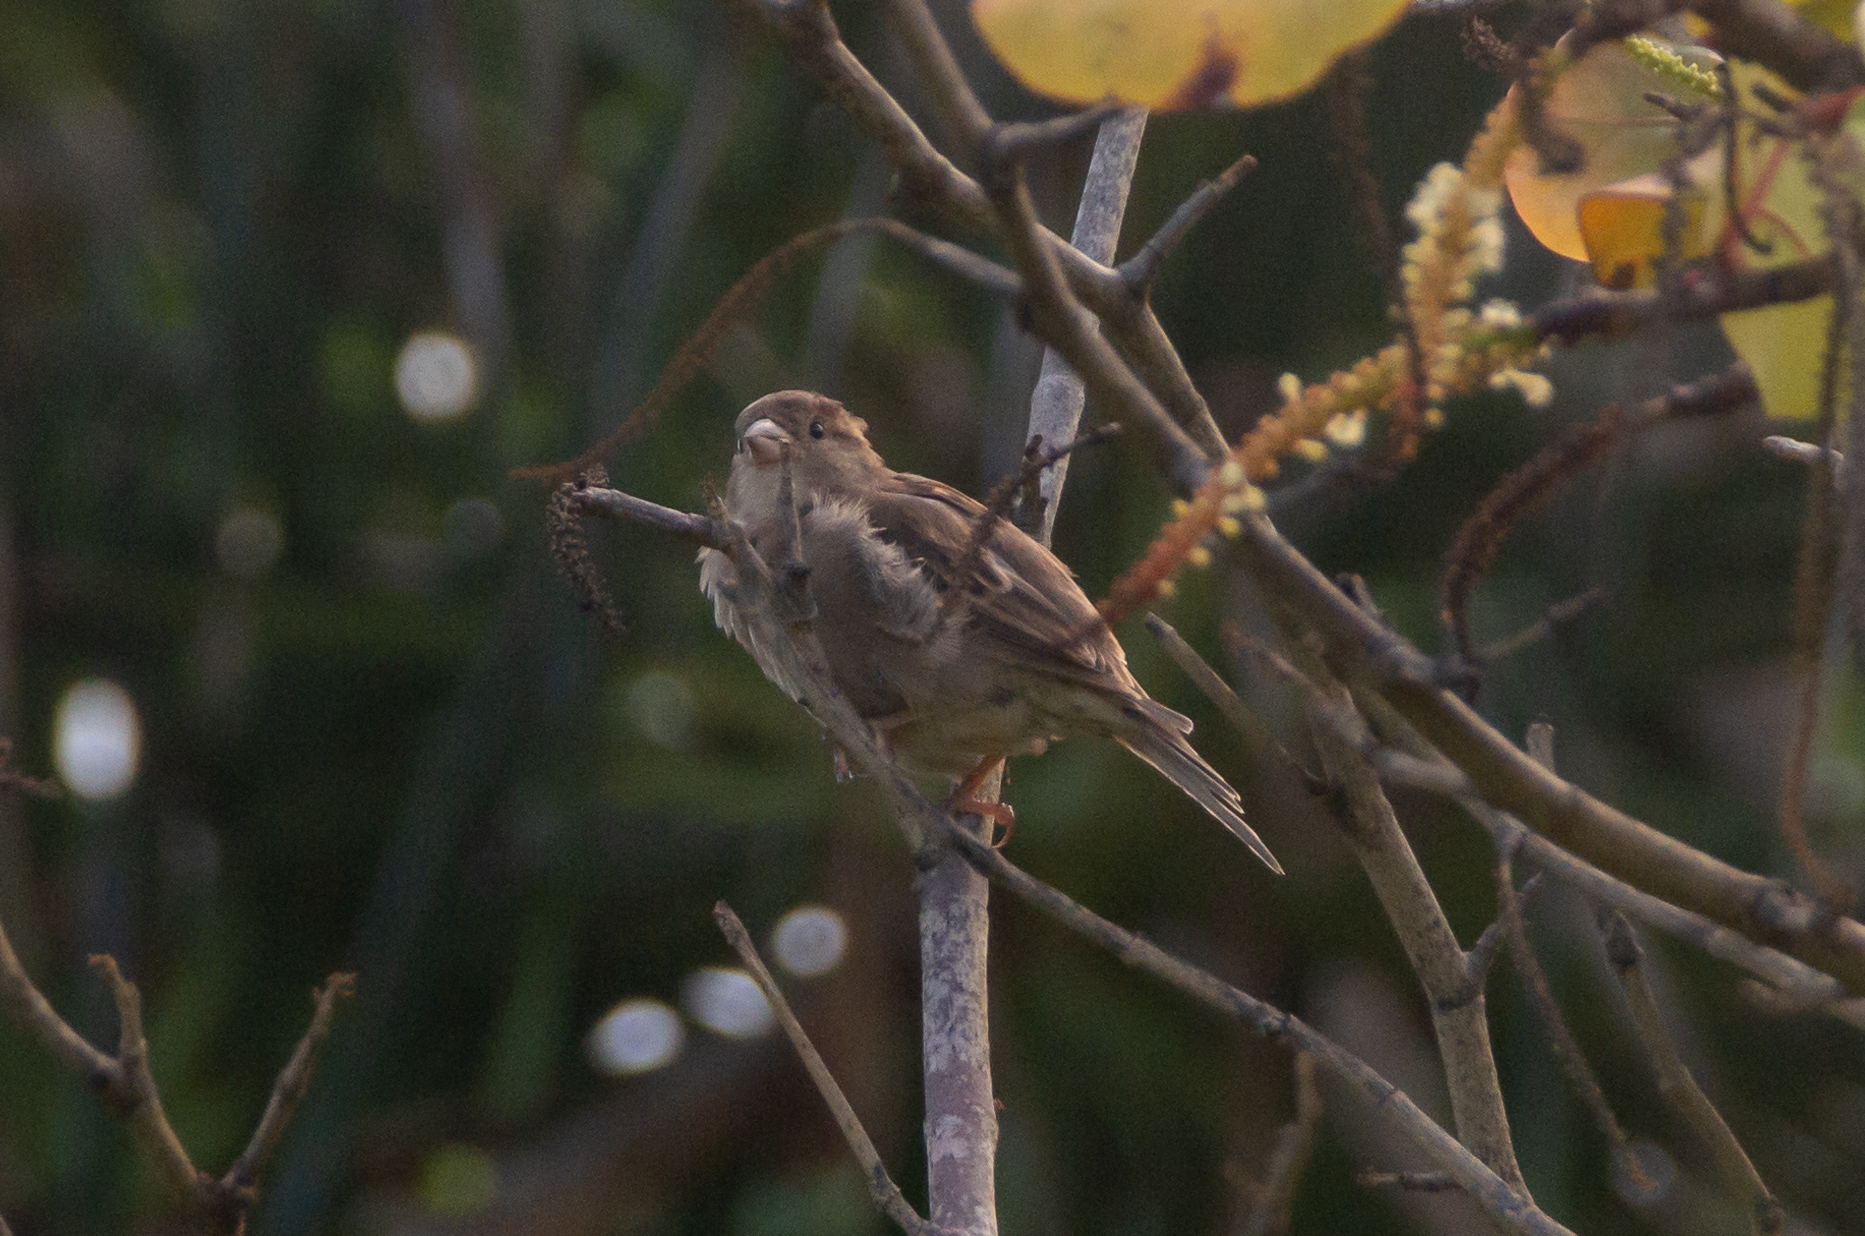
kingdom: Animalia
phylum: Chordata
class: Aves
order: Passeriformes
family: Passeridae
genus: Passer
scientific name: Passer domesticus
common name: House sparrow
